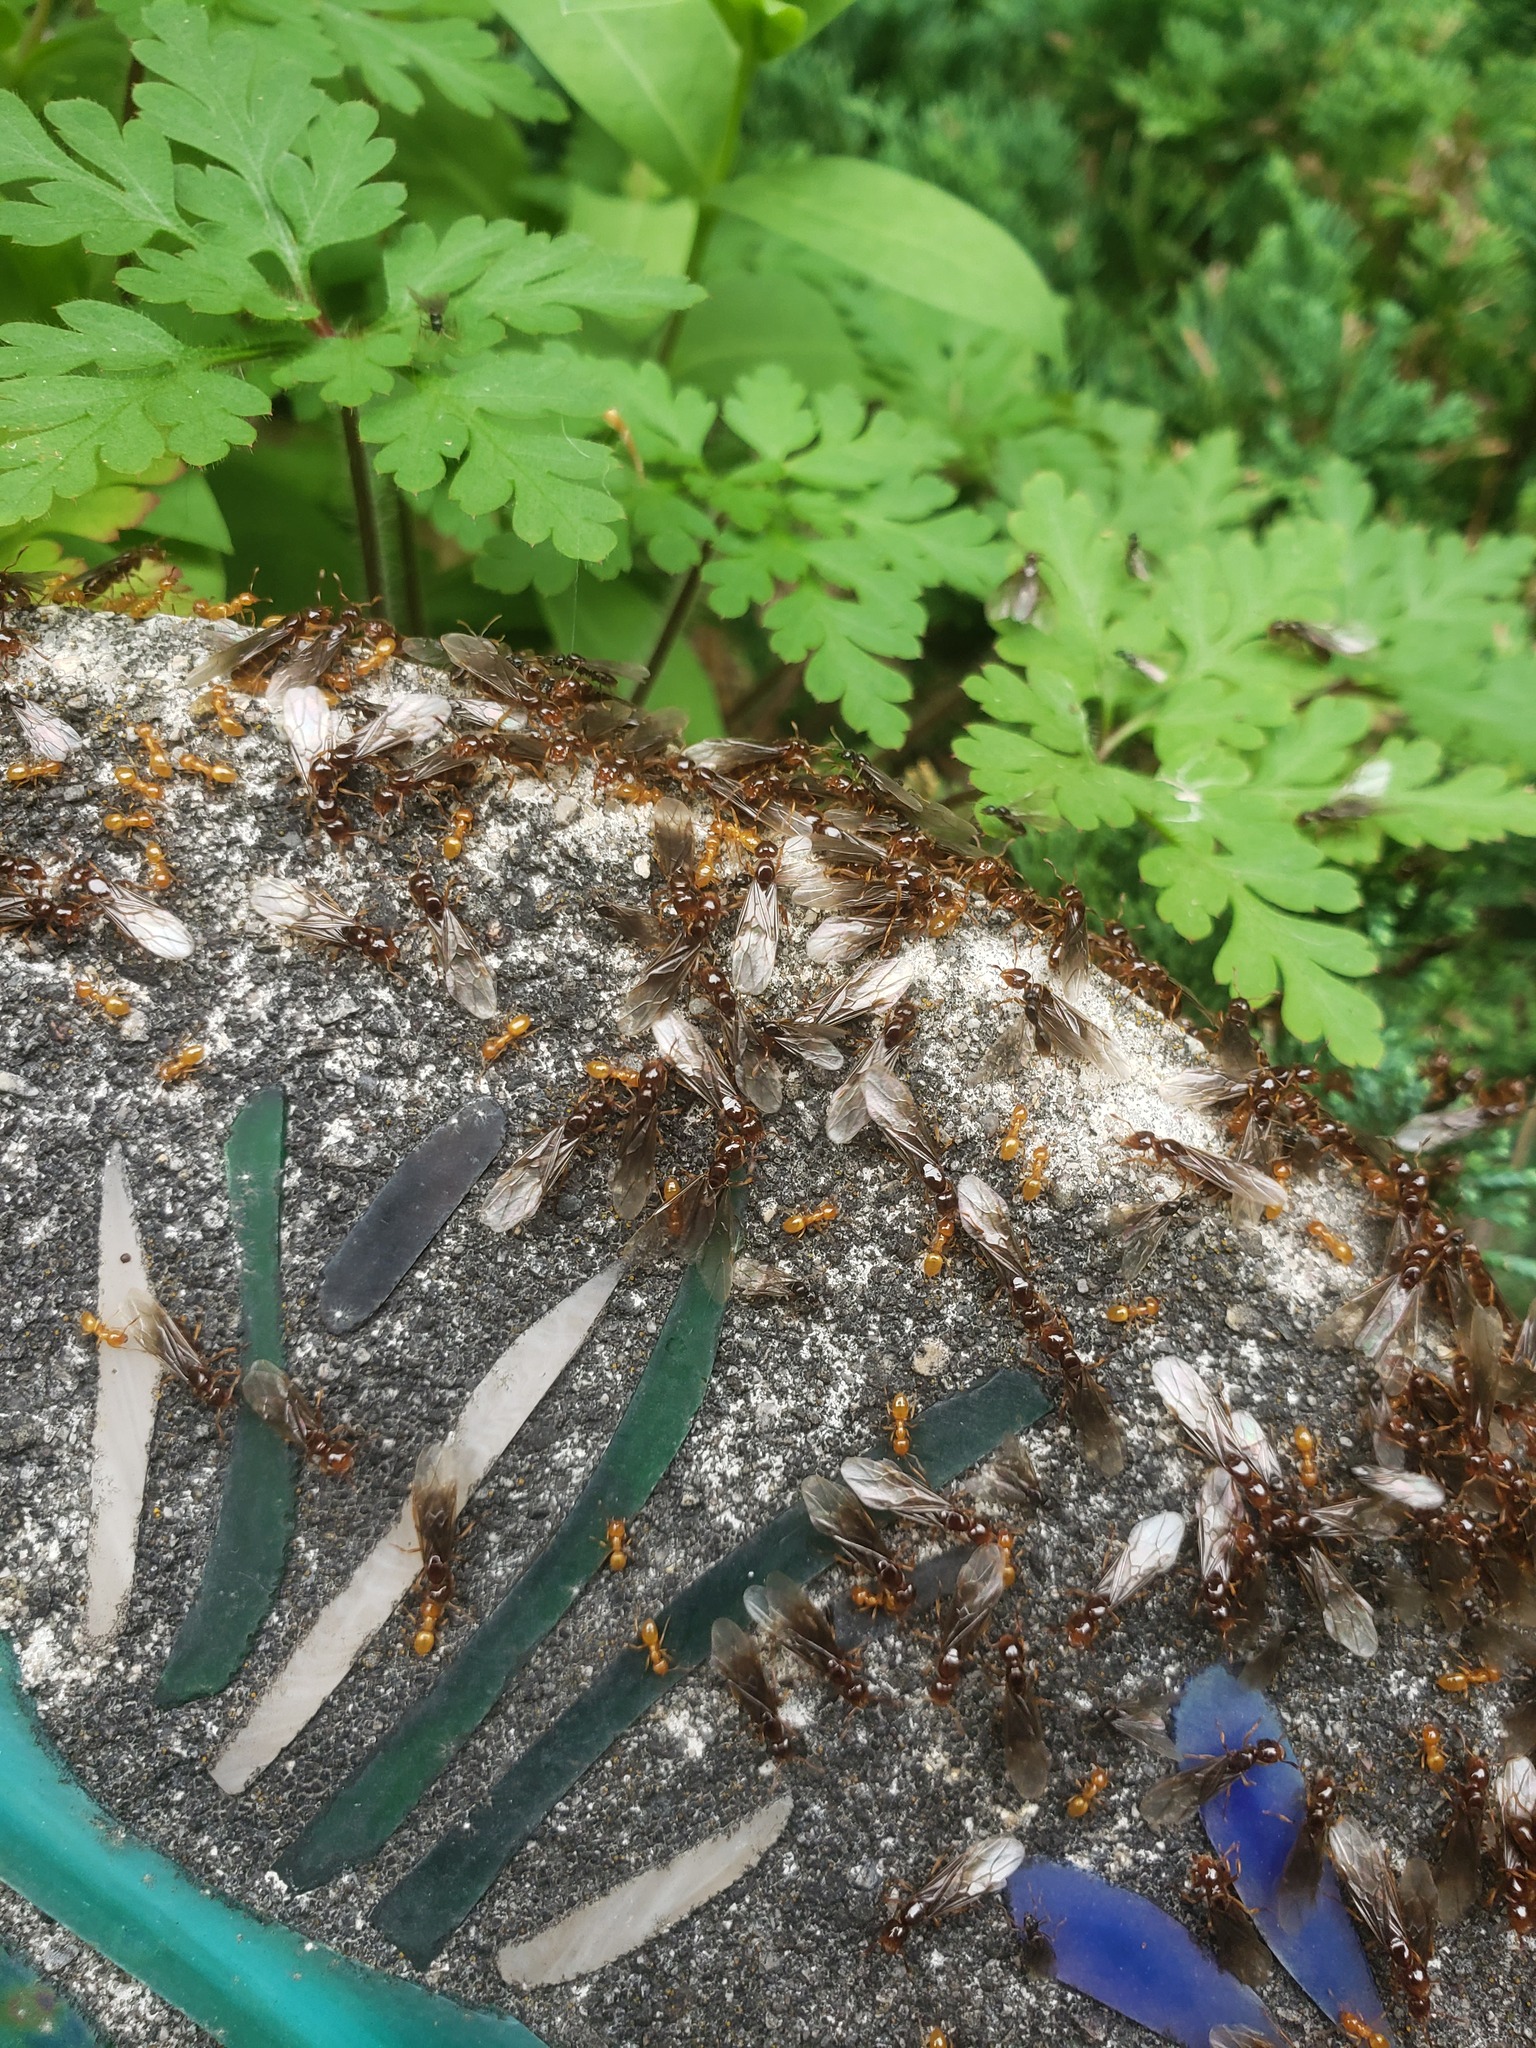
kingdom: Animalia
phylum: Arthropoda
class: Insecta
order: Hymenoptera
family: Formicidae
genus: Lasius
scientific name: Lasius claviger
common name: Common citronella ant
